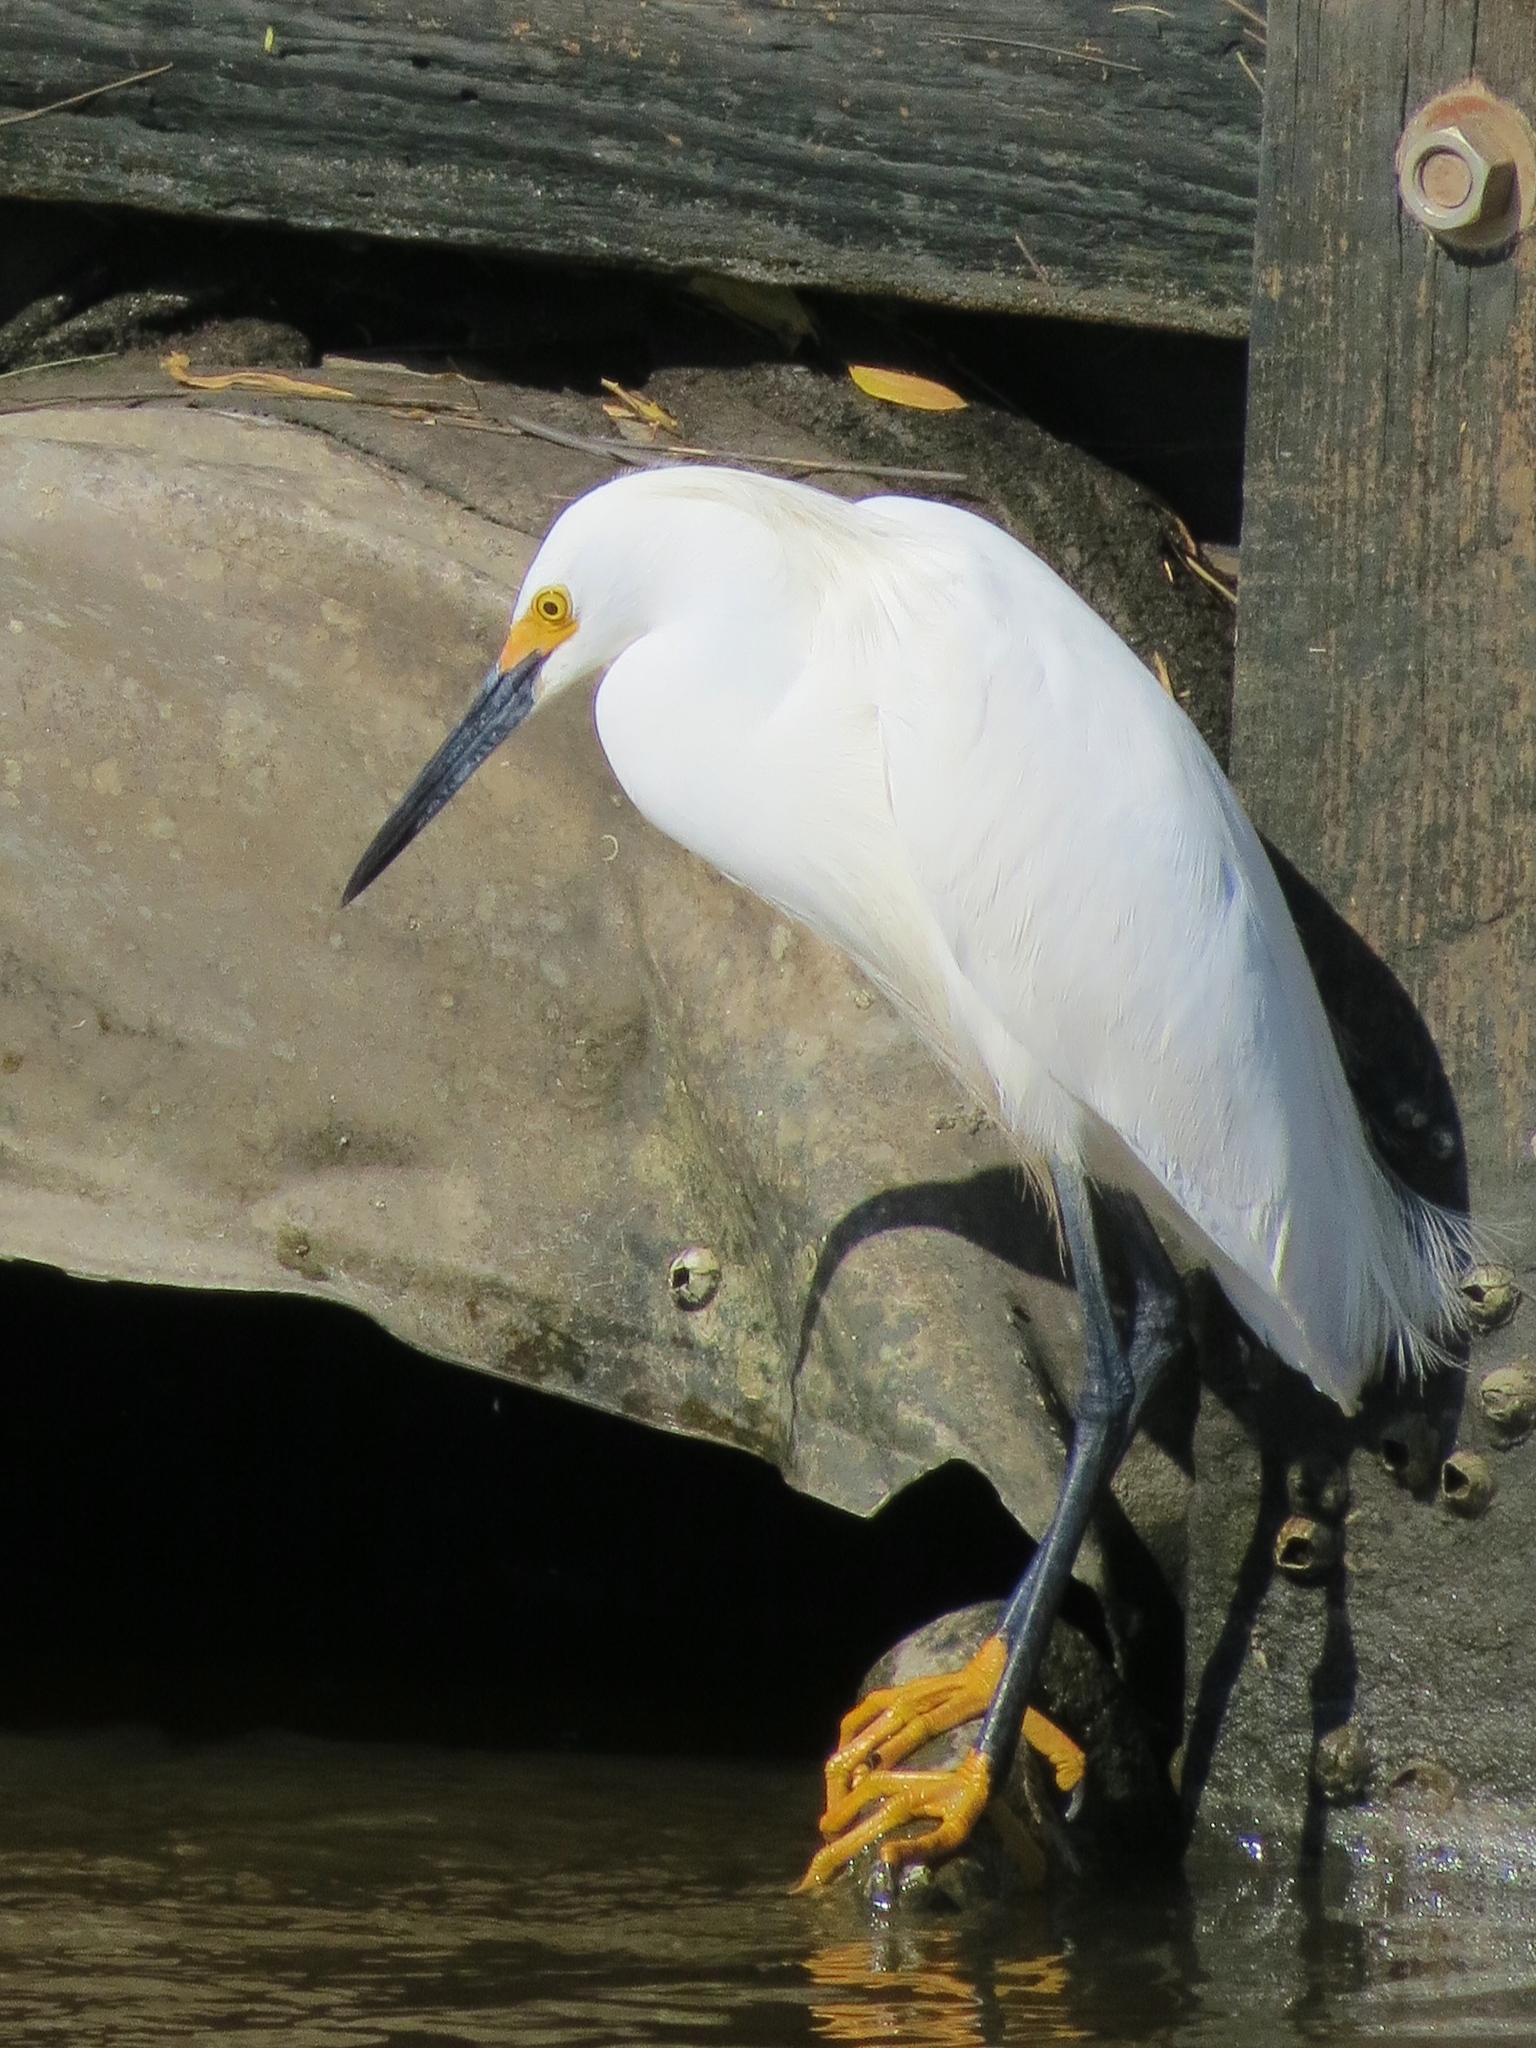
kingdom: Animalia
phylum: Chordata
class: Aves
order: Pelecaniformes
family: Ardeidae
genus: Egretta
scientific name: Egretta thula
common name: Snowy egret
